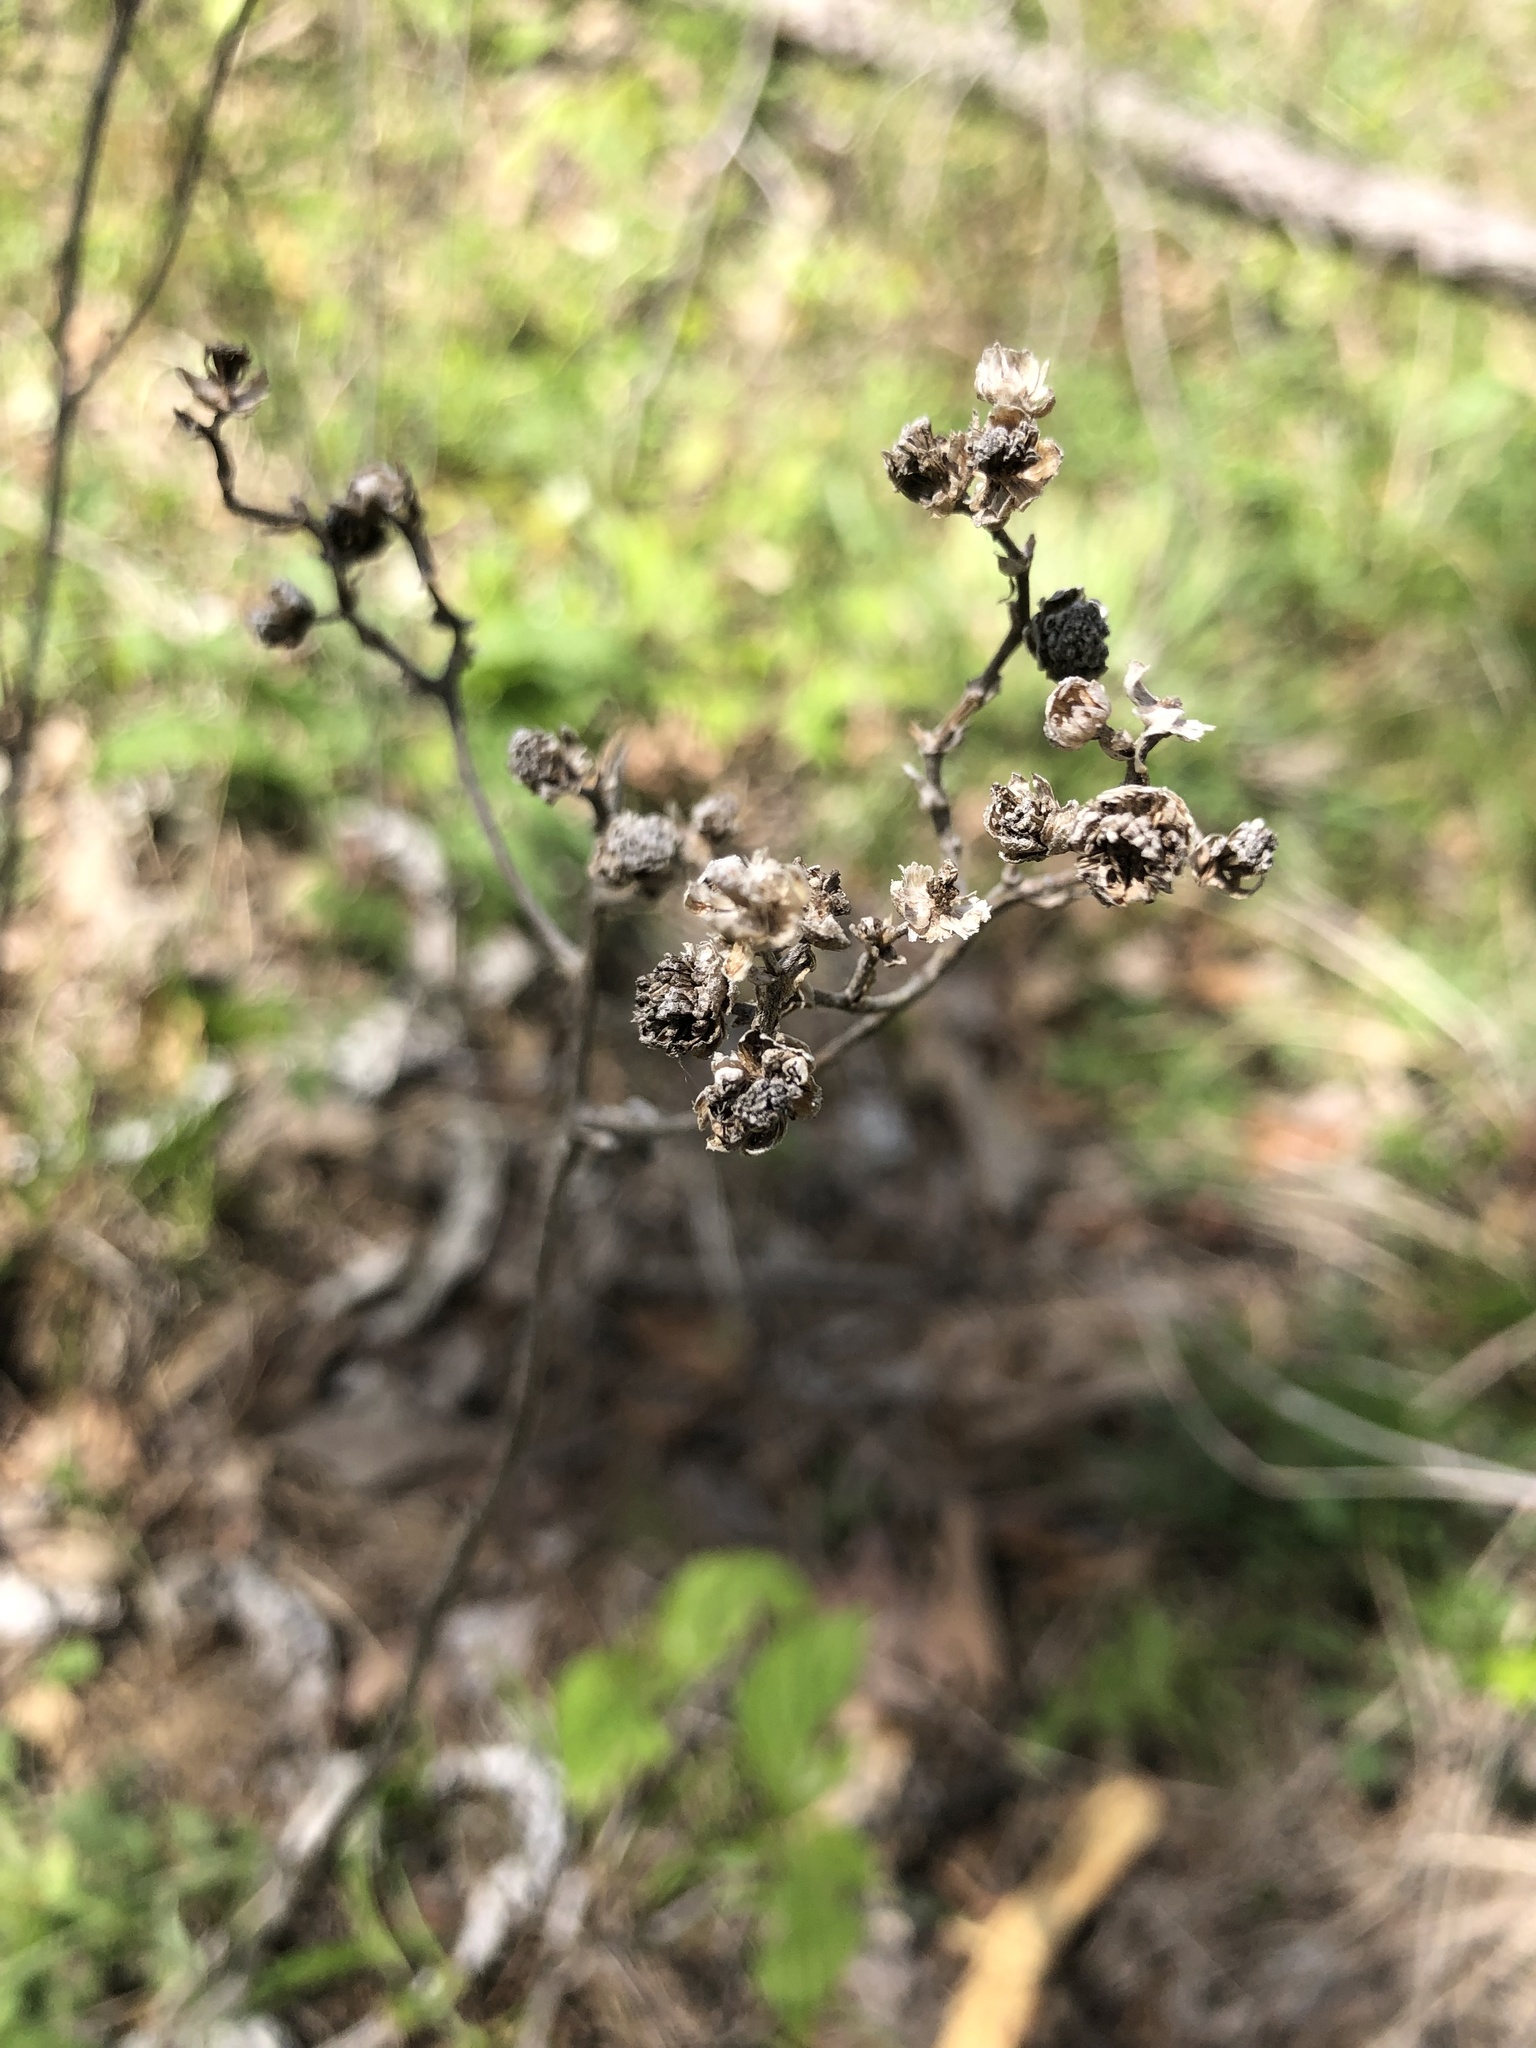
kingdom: Plantae
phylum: Tracheophyta
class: Magnoliopsida
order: Asterales
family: Asteraceae
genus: Parthenium
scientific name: Parthenium auriculatum
